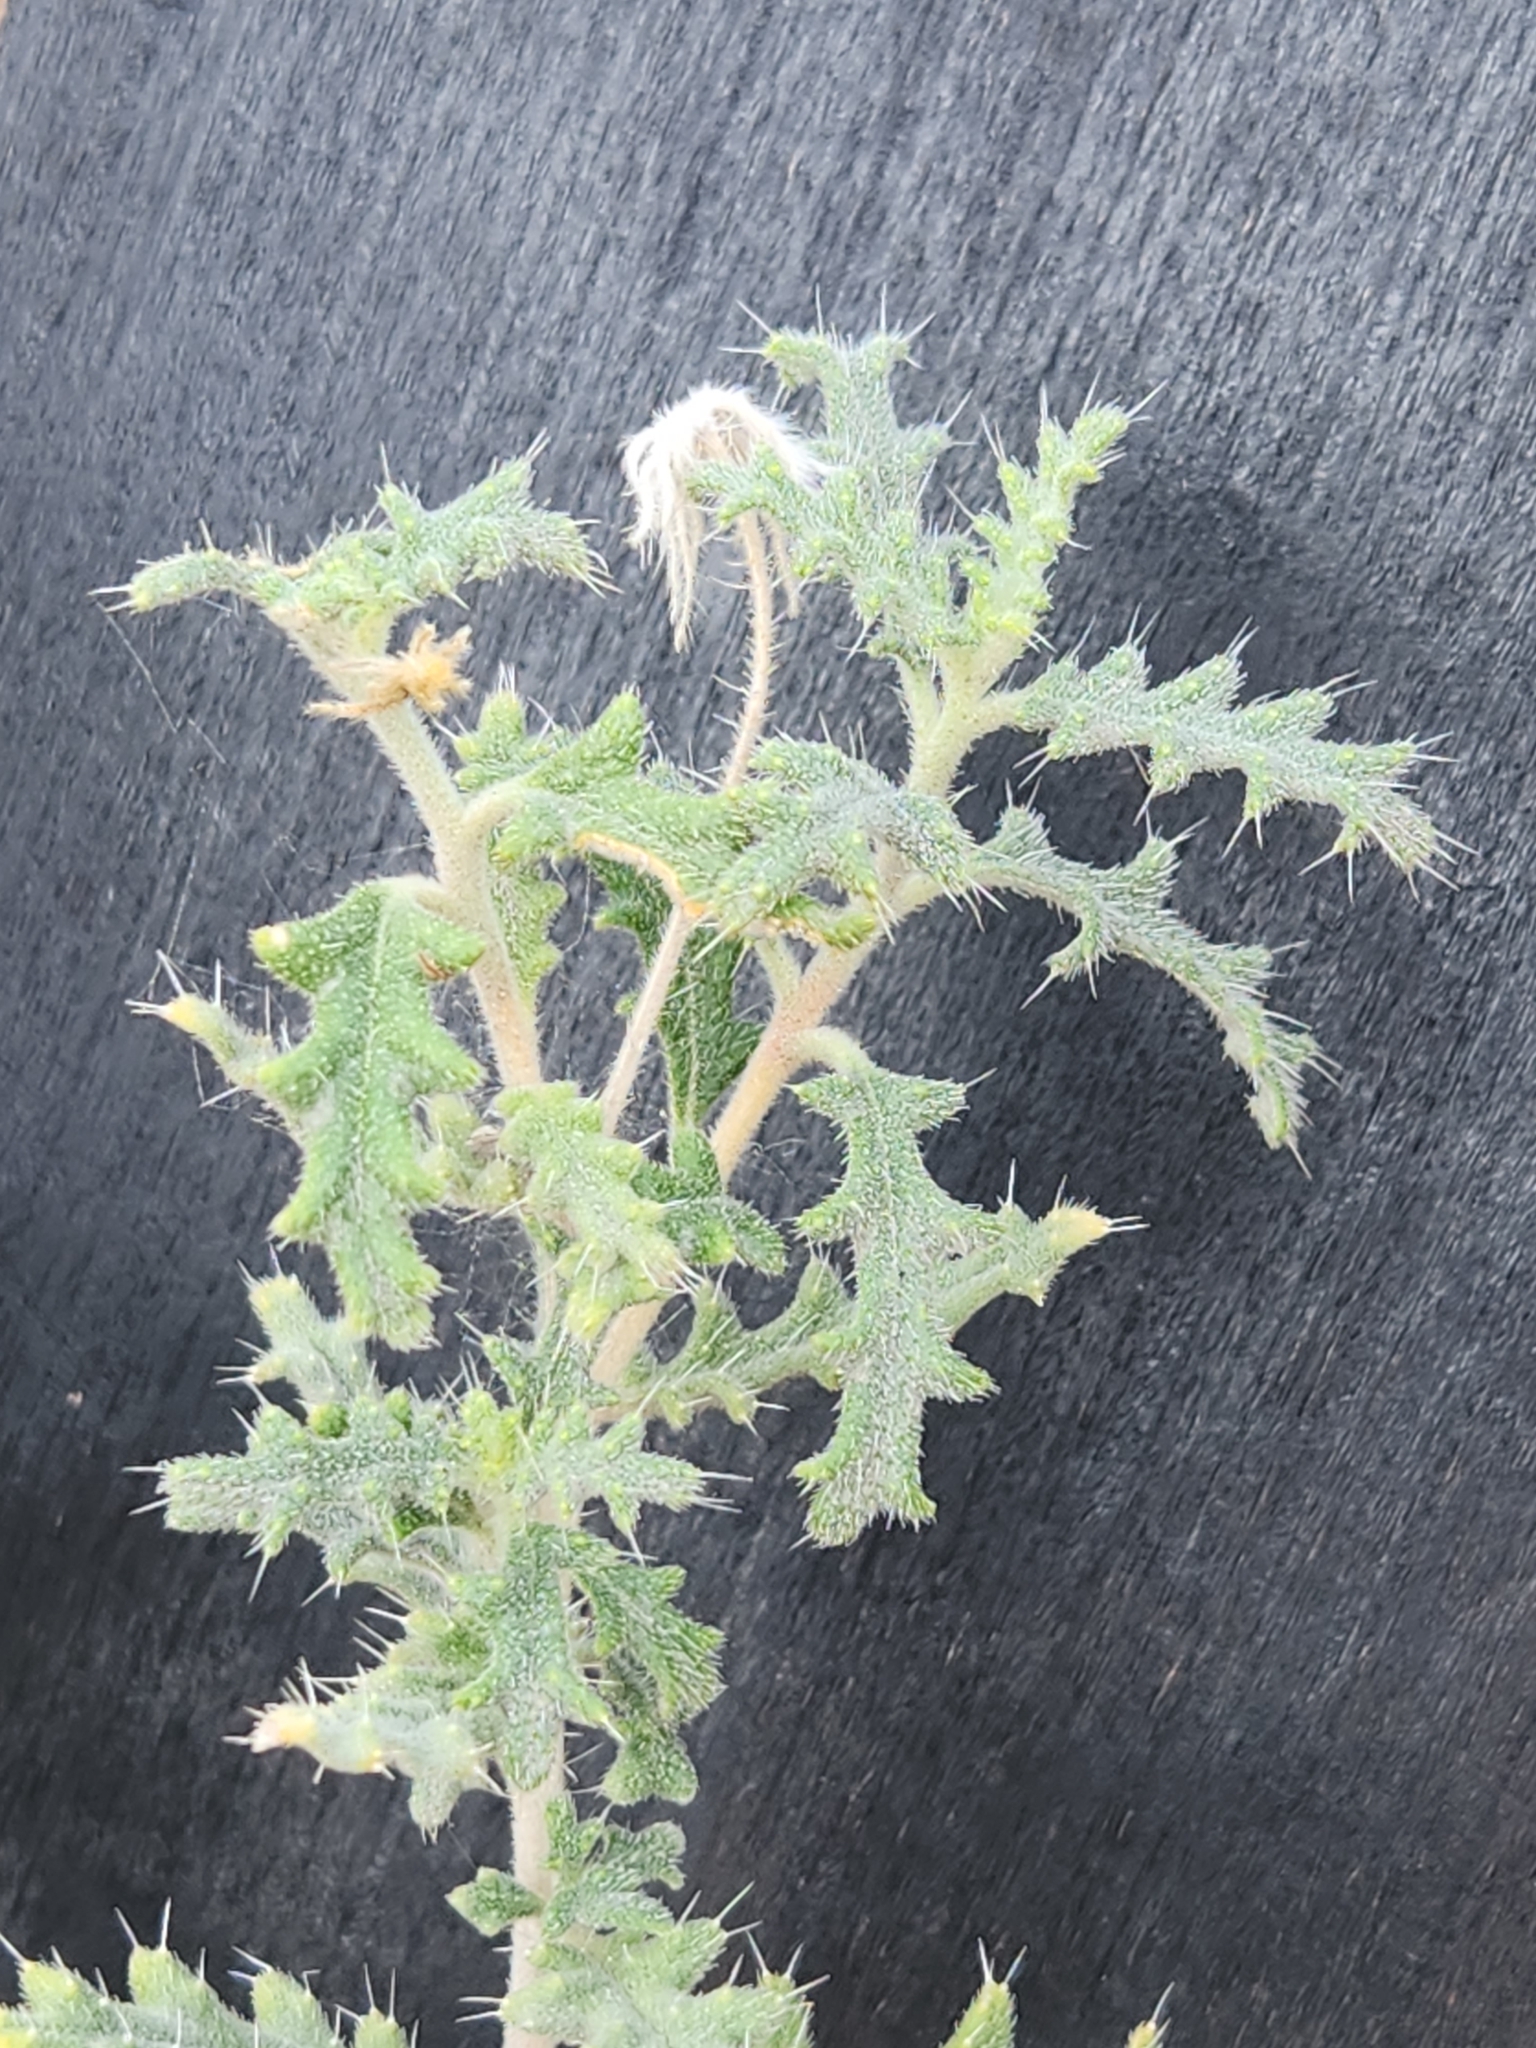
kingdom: Plantae
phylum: Tracheophyta
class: Magnoliopsida
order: Cornales
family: Loasaceae
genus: Cevallia
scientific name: Cevallia sinuata
